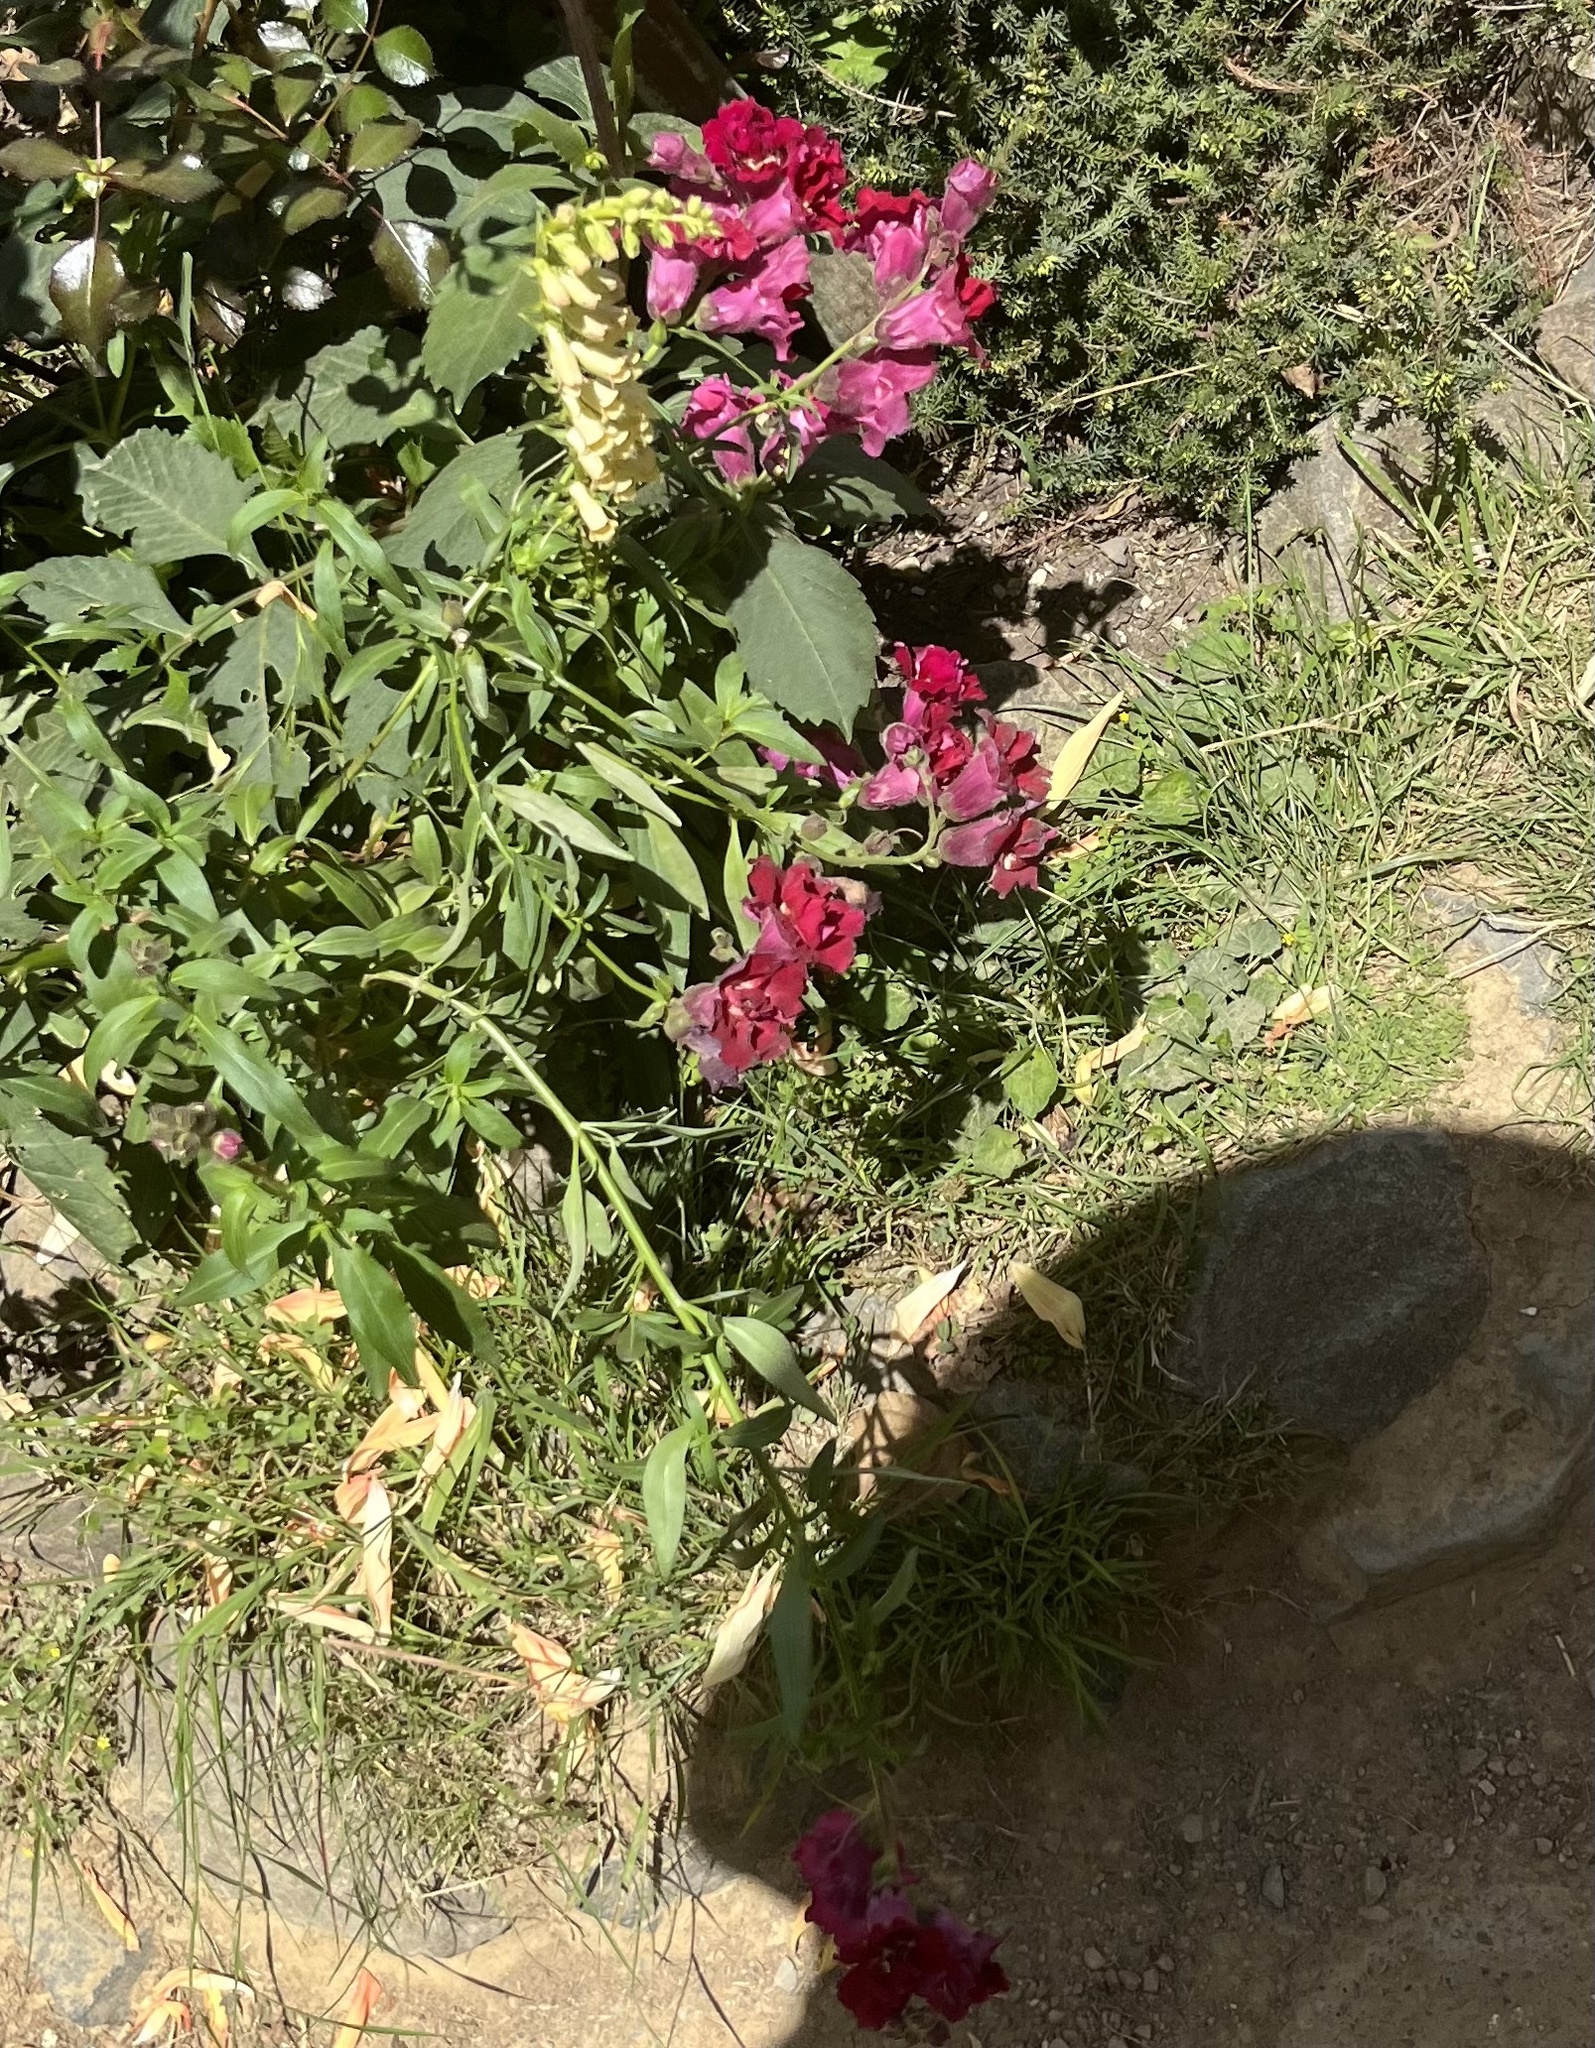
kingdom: Plantae
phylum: Tracheophyta
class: Magnoliopsida
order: Lamiales
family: Plantaginaceae
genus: Antirrhinum
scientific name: Antirrhinum majus
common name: Snapdragon
